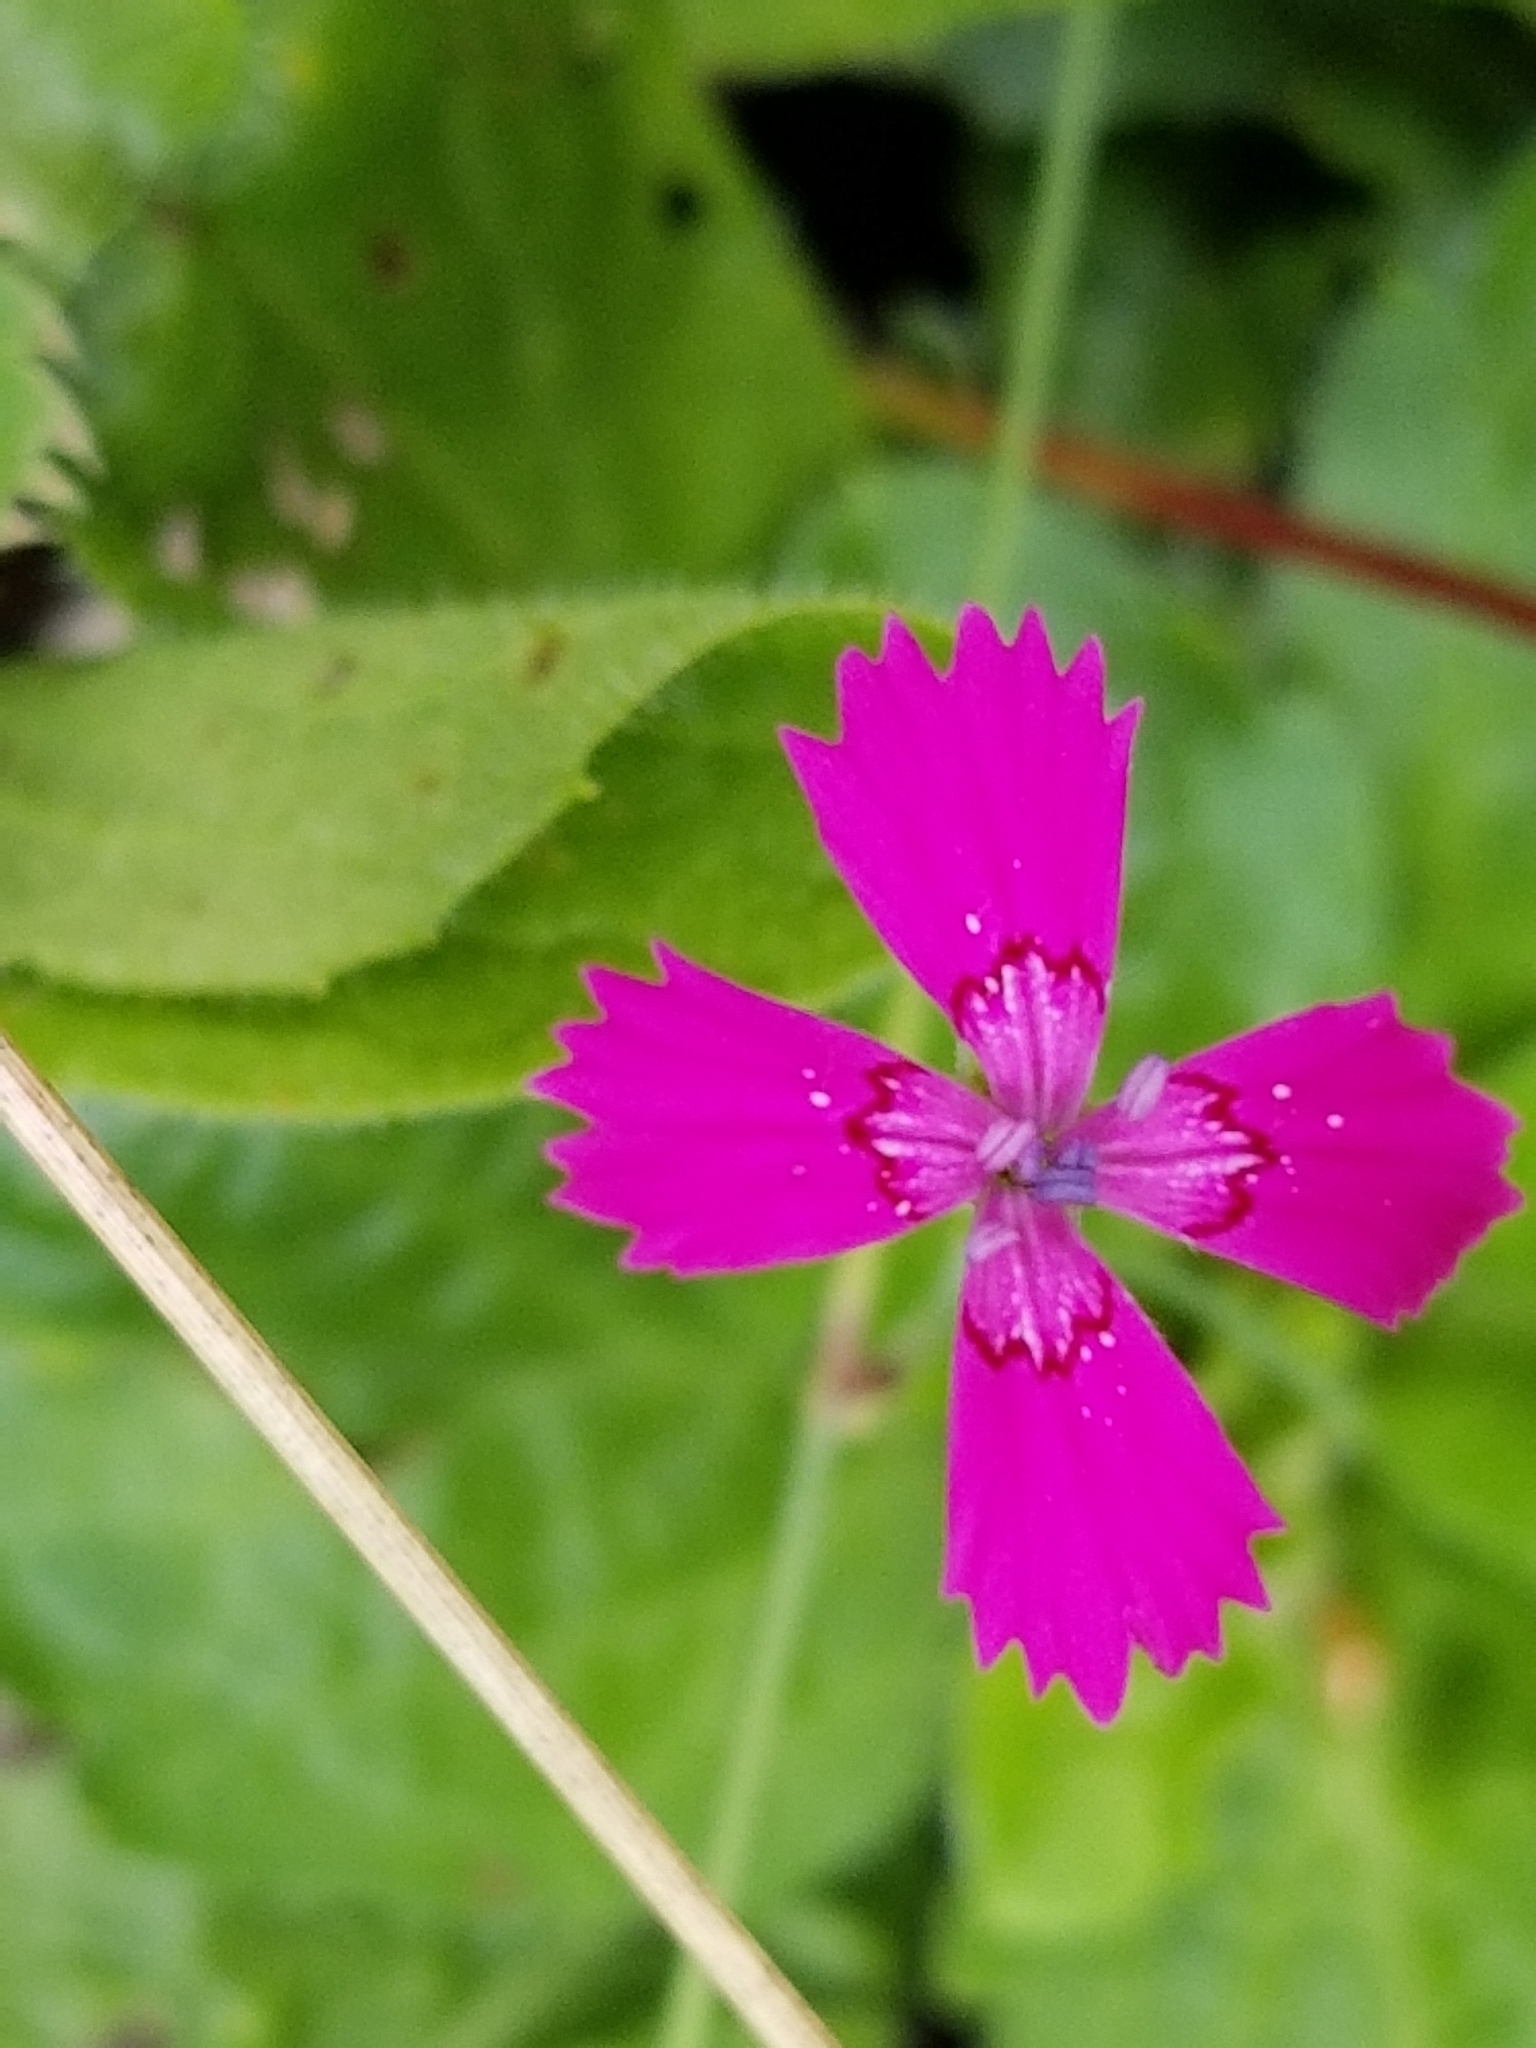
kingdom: Plantae
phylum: Tracheophyta
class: Magnoliopsida
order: Caryophyllales
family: Caryophyllaceae
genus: Dianthus
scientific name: Dianthus deltoides
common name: Maiden pink
